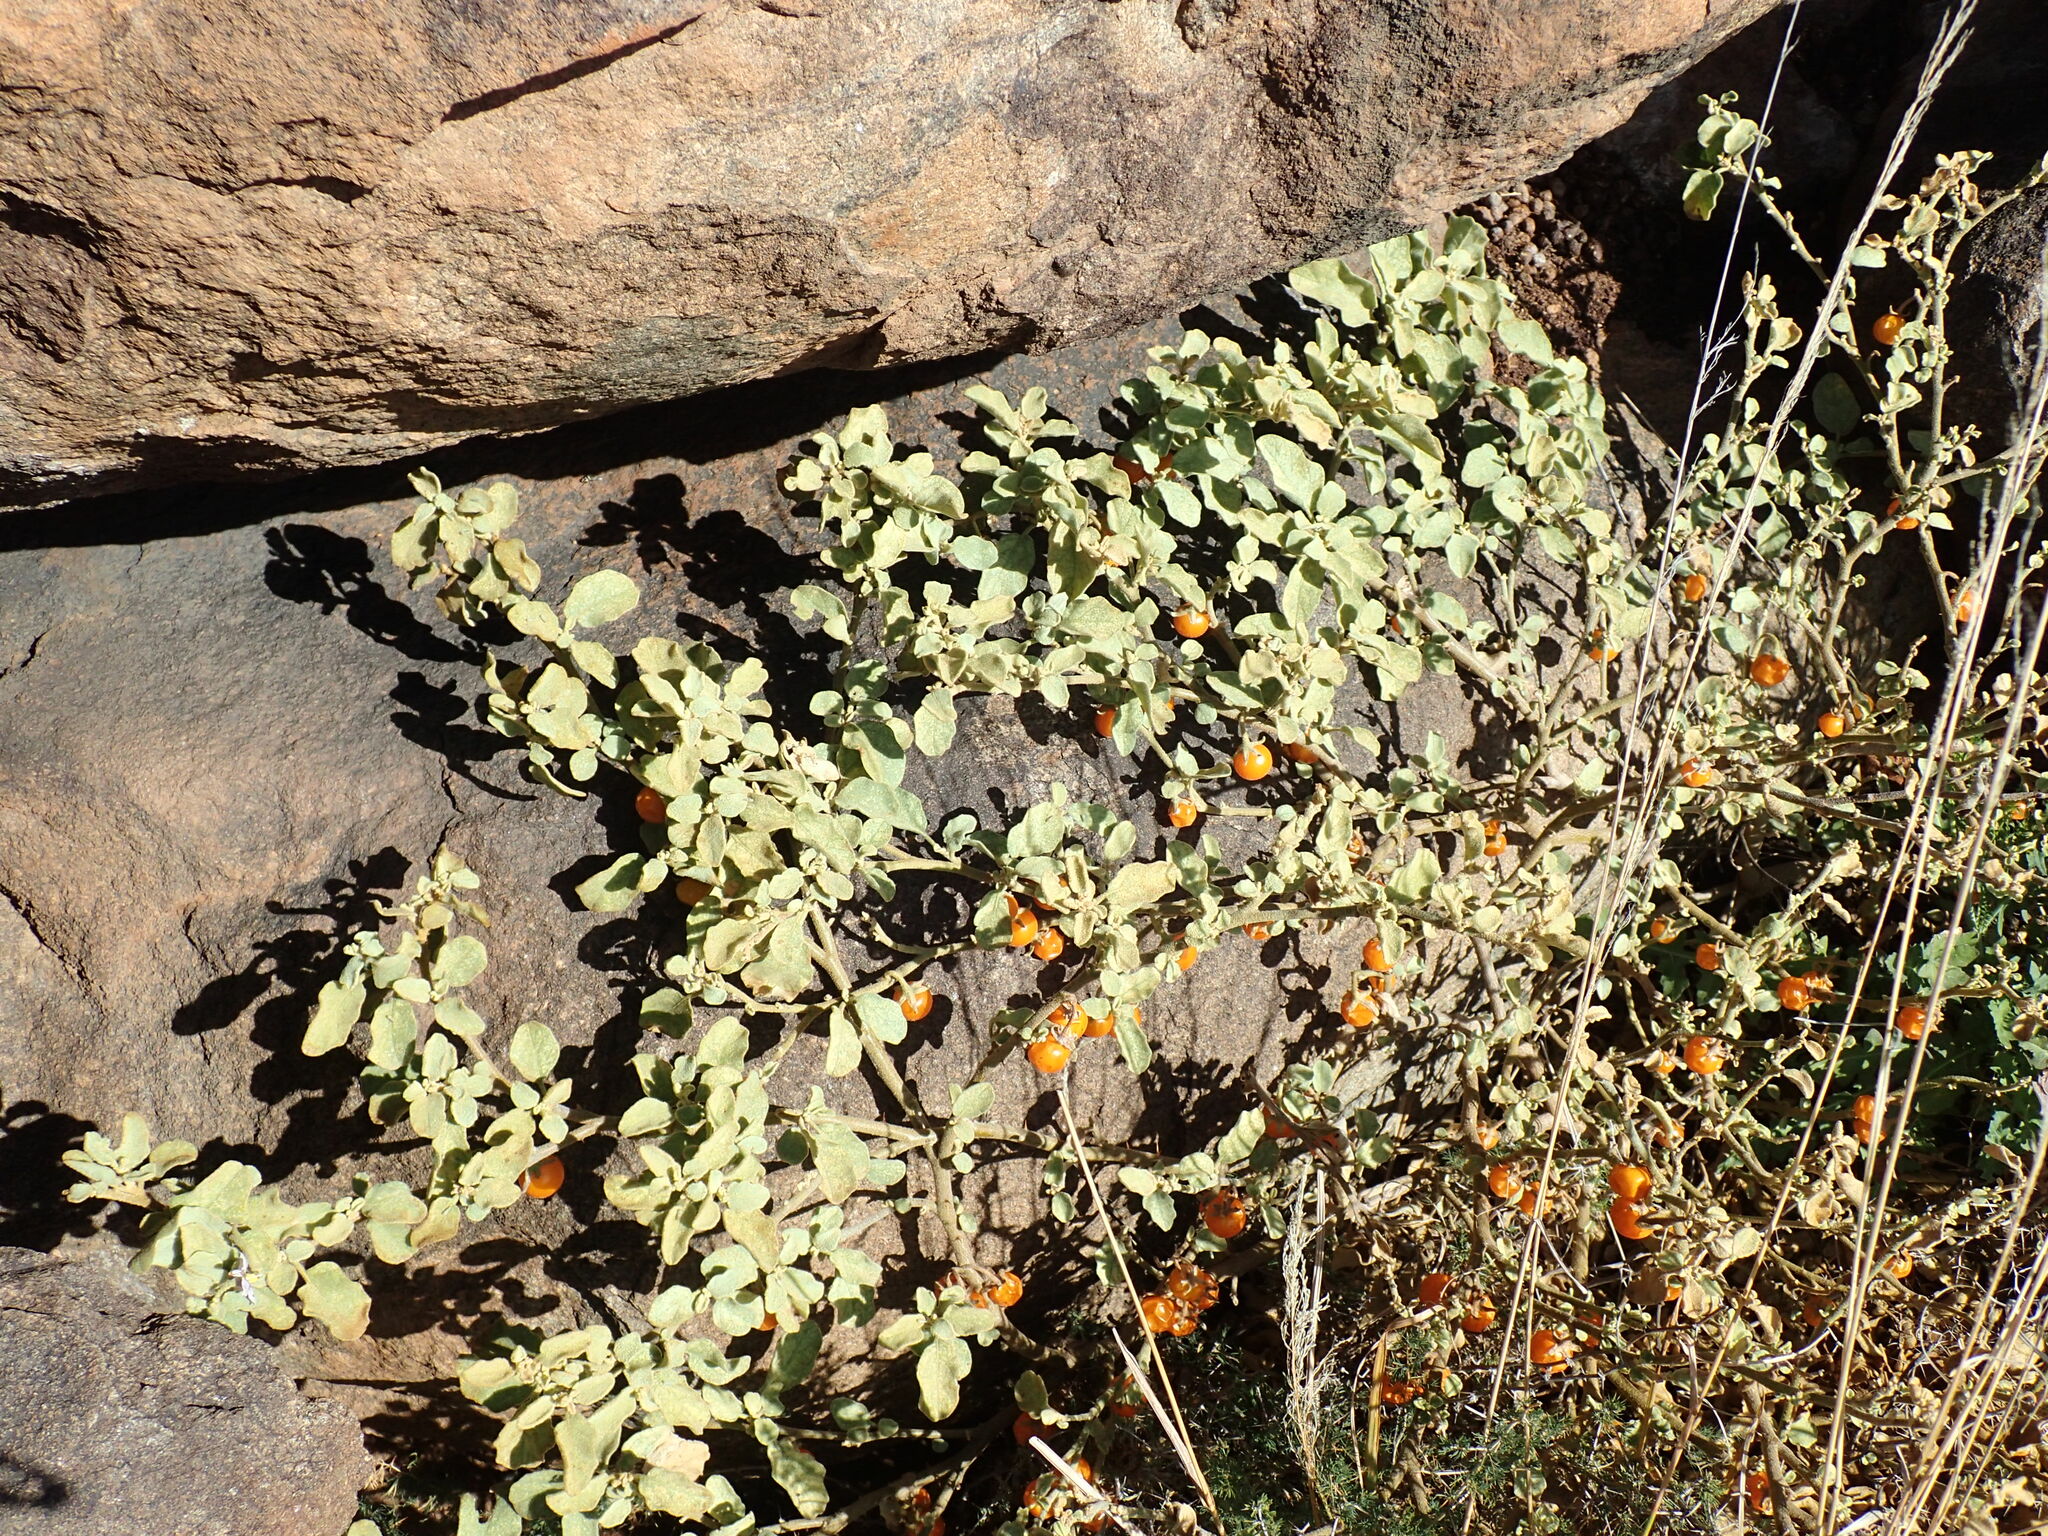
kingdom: Plantae
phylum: Tracheophyta
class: Magnoliopsida
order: Solanales
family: Solanaceae
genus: Solanum
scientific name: Solanum tomentosum
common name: Wild aubergine
